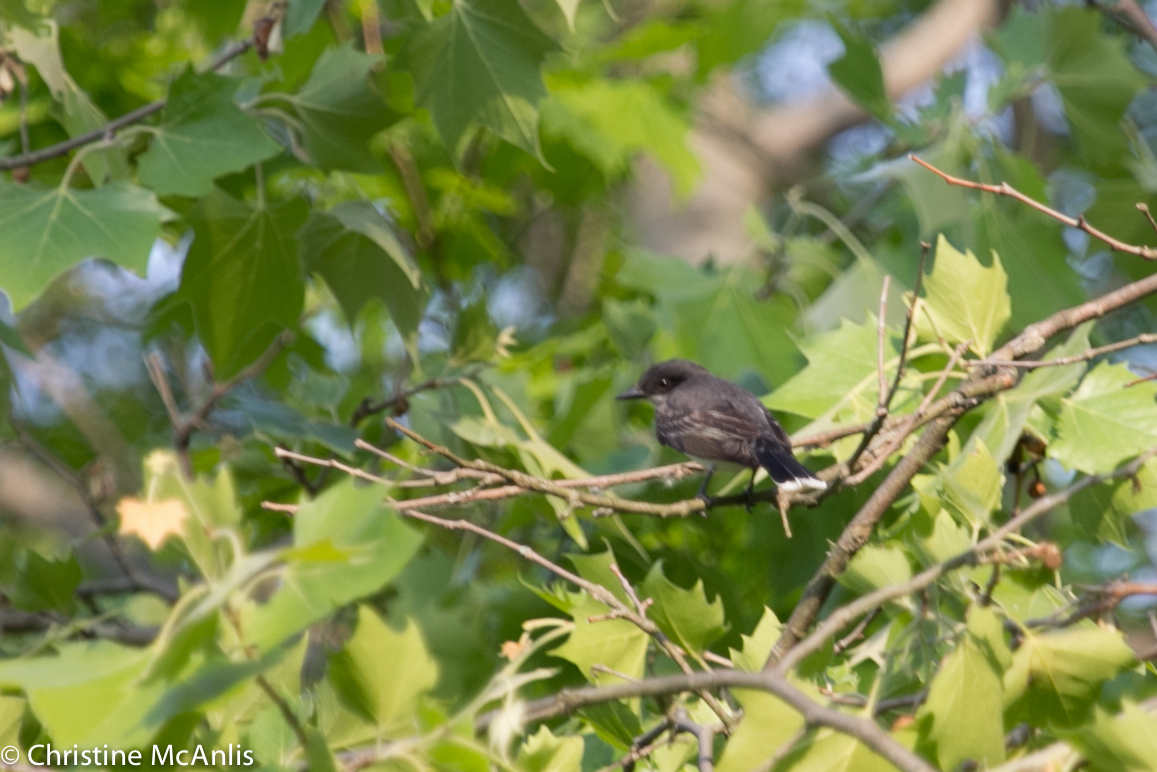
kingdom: Animalia
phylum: Chordata
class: Aves
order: Passeriformes
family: Tyrannidae
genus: Tyrannus
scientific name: Tyrannus tyrannus
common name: Eastern kingbird
